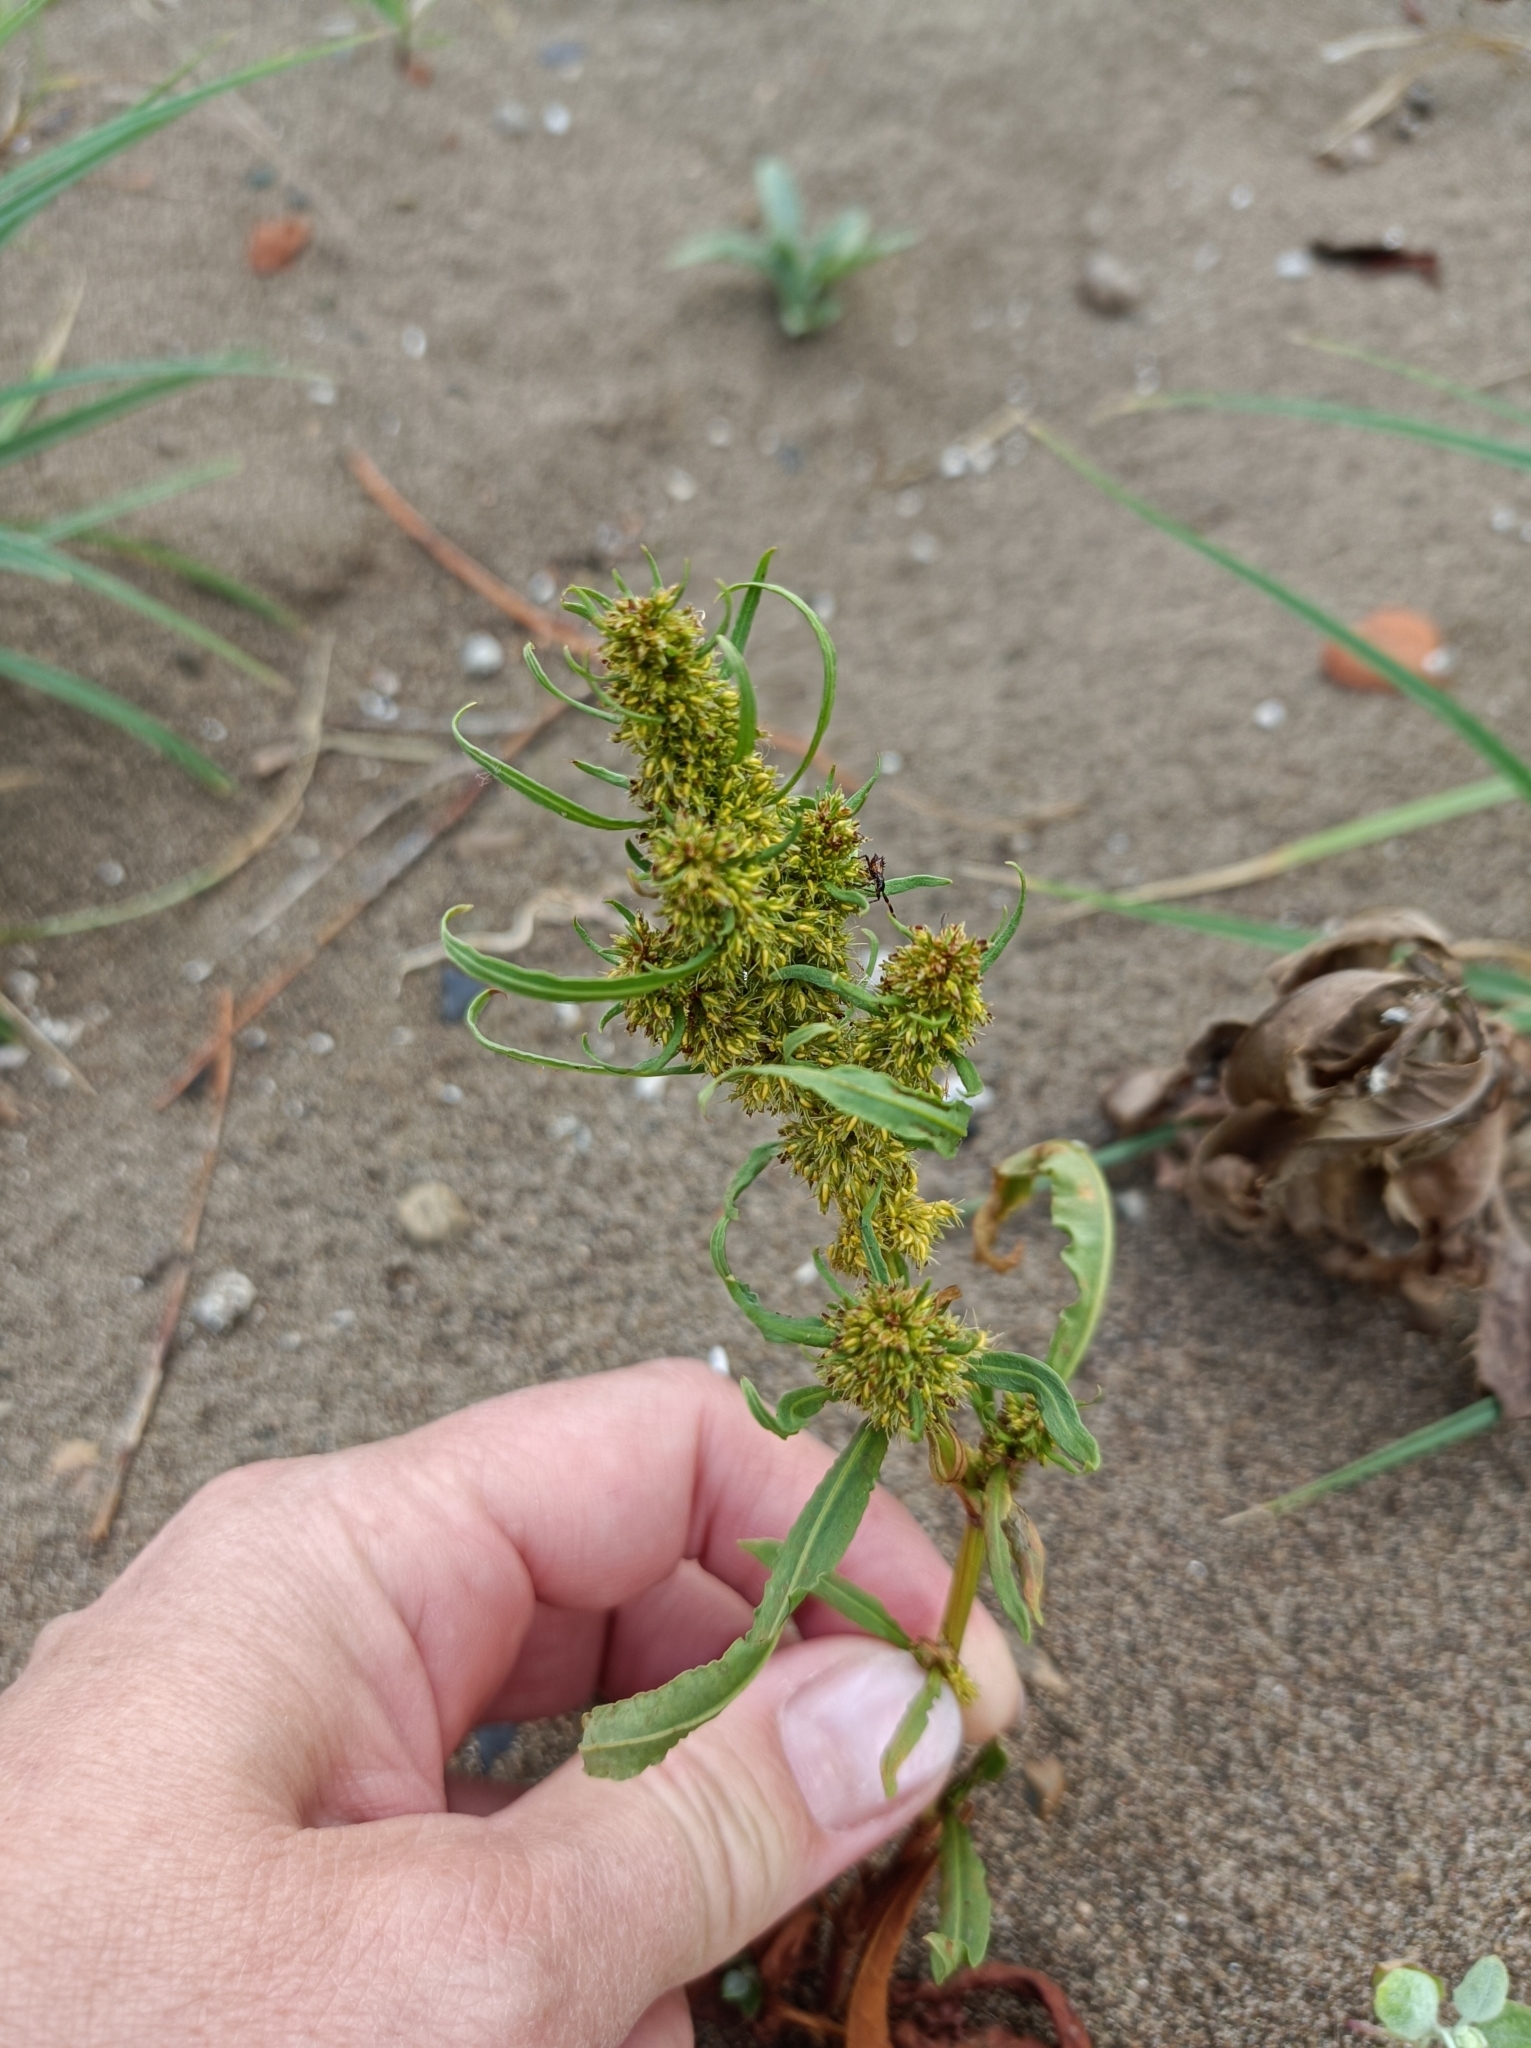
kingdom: Plantae
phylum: Tracheophyta
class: Magnoliopsida
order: Caryophyllales
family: Polygonaceae
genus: Rumex
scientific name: Rumex maritimus
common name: Golden dock
